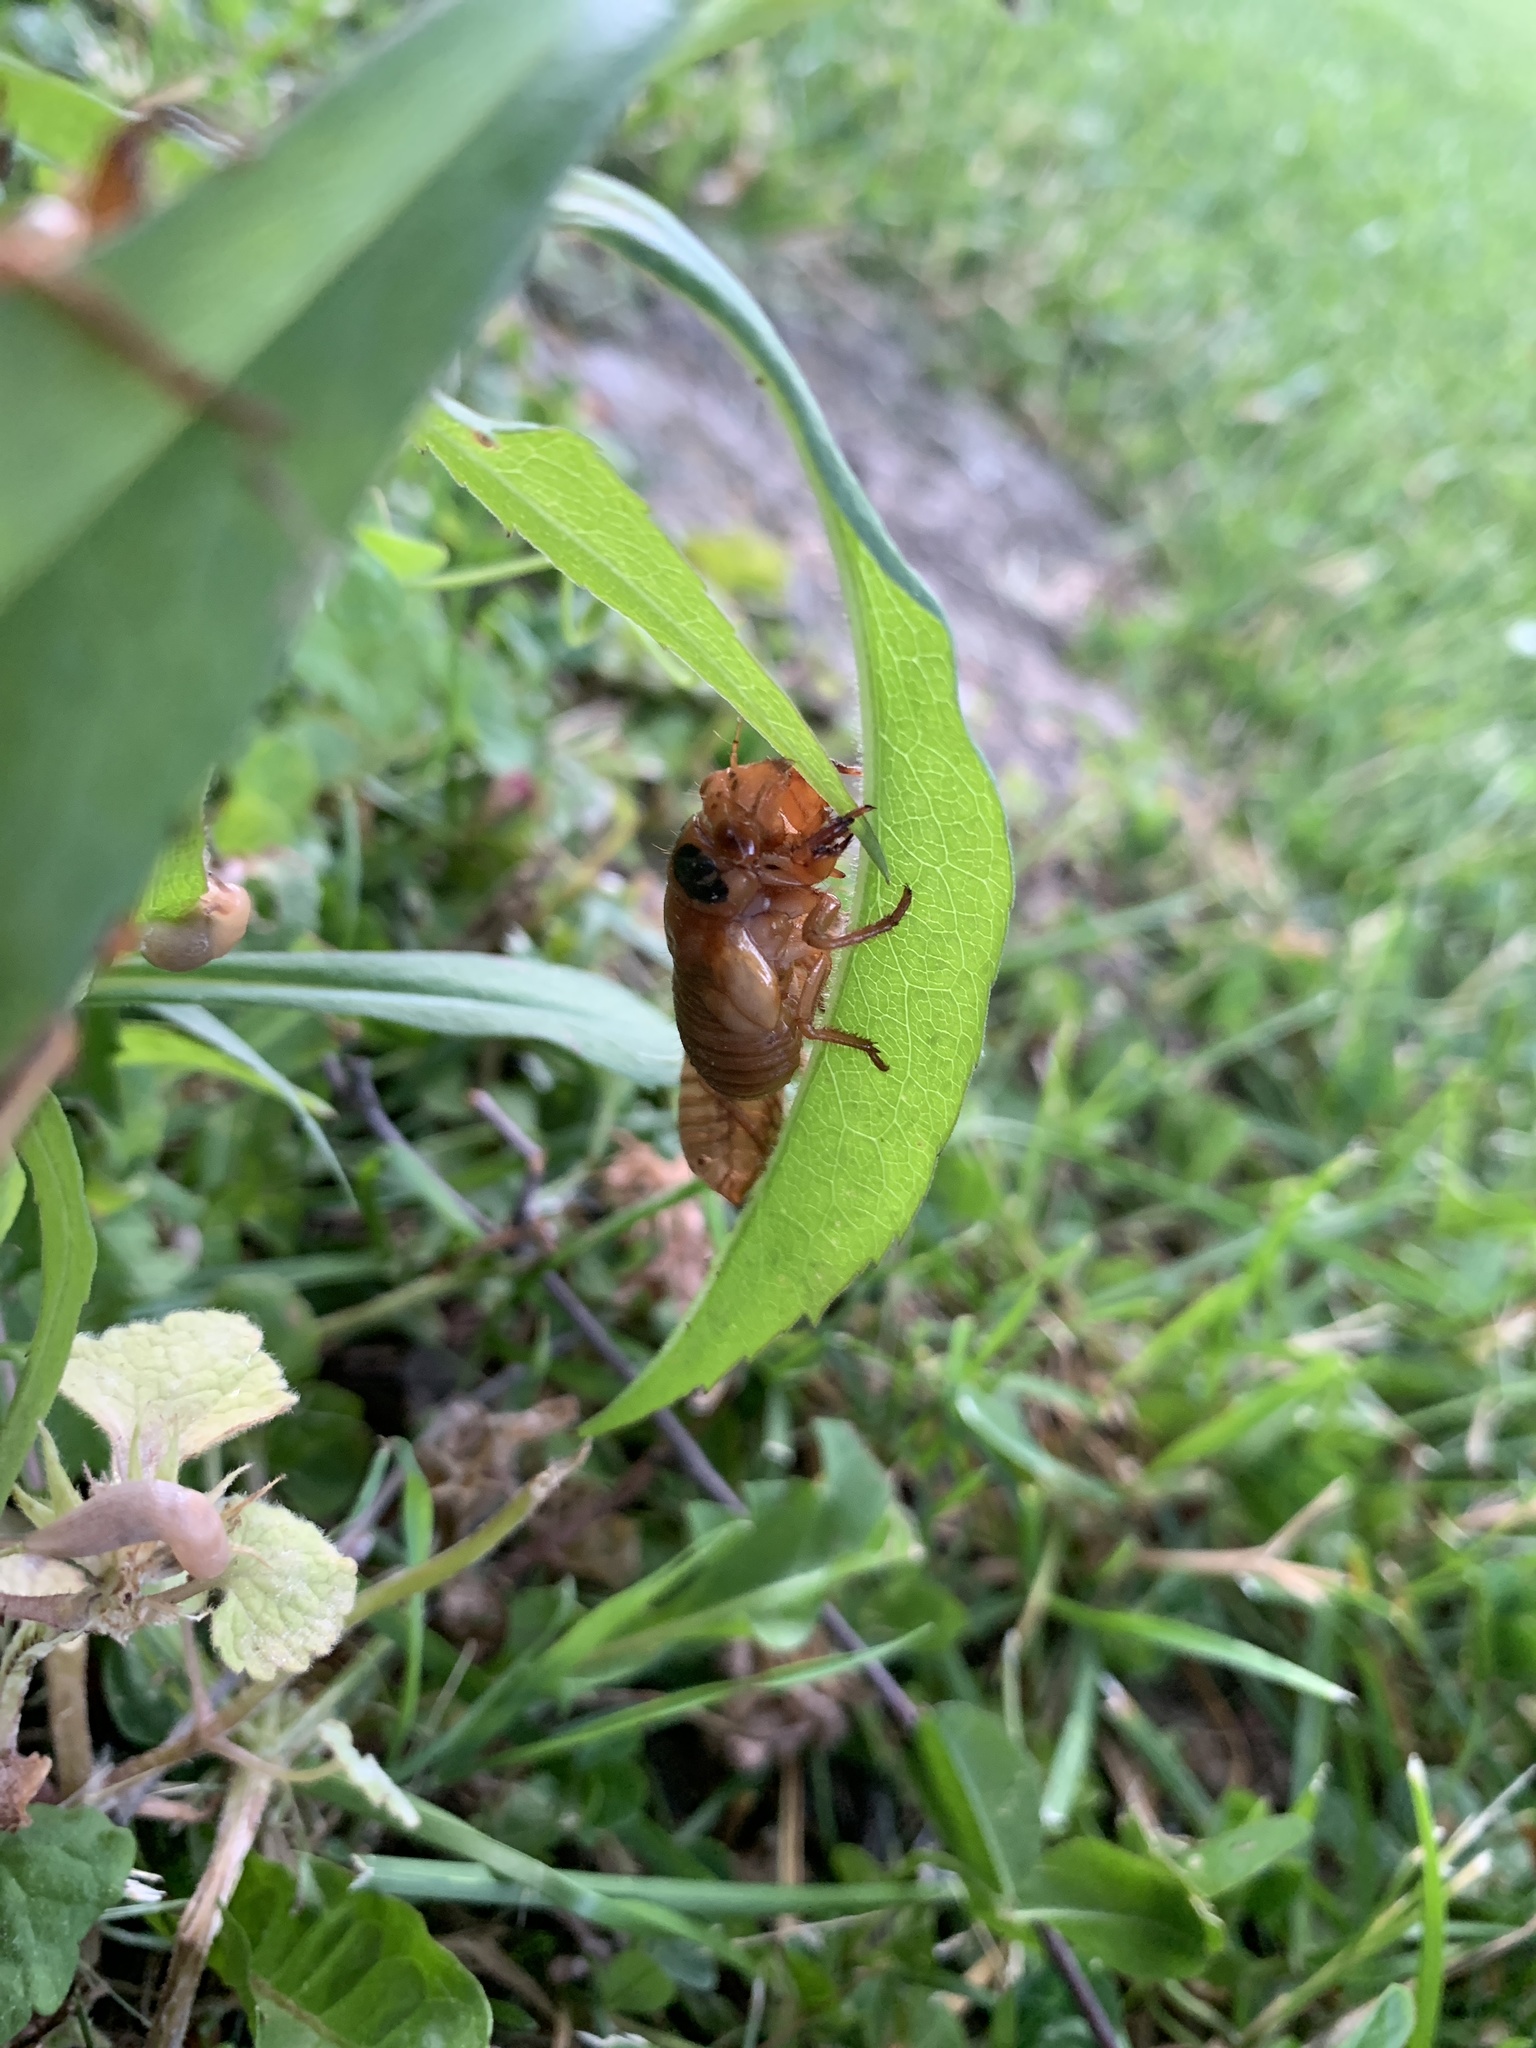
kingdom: Animalia
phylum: Arthropoda
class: Insecta
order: Hemiptera
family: Cicadidae
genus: Magicicada
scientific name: Magicicada
